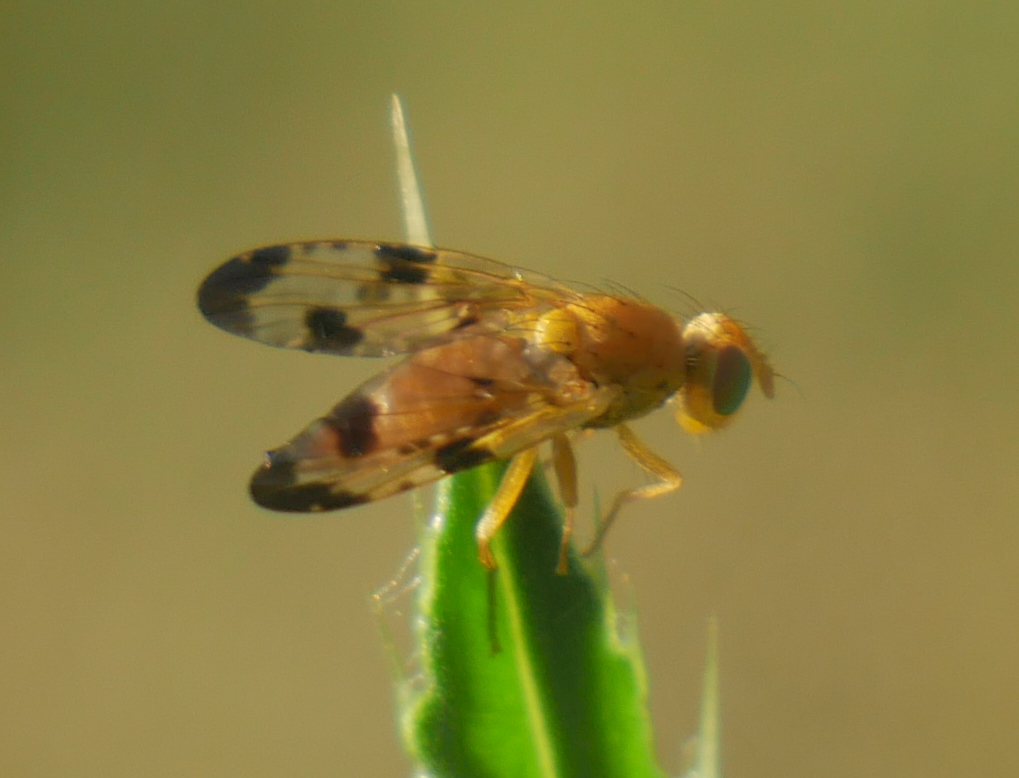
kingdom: Animalia
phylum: Arthropoda
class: Insecta
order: Diptera
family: Tephritidae
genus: Xyphosia
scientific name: Xyphosia miliaria
